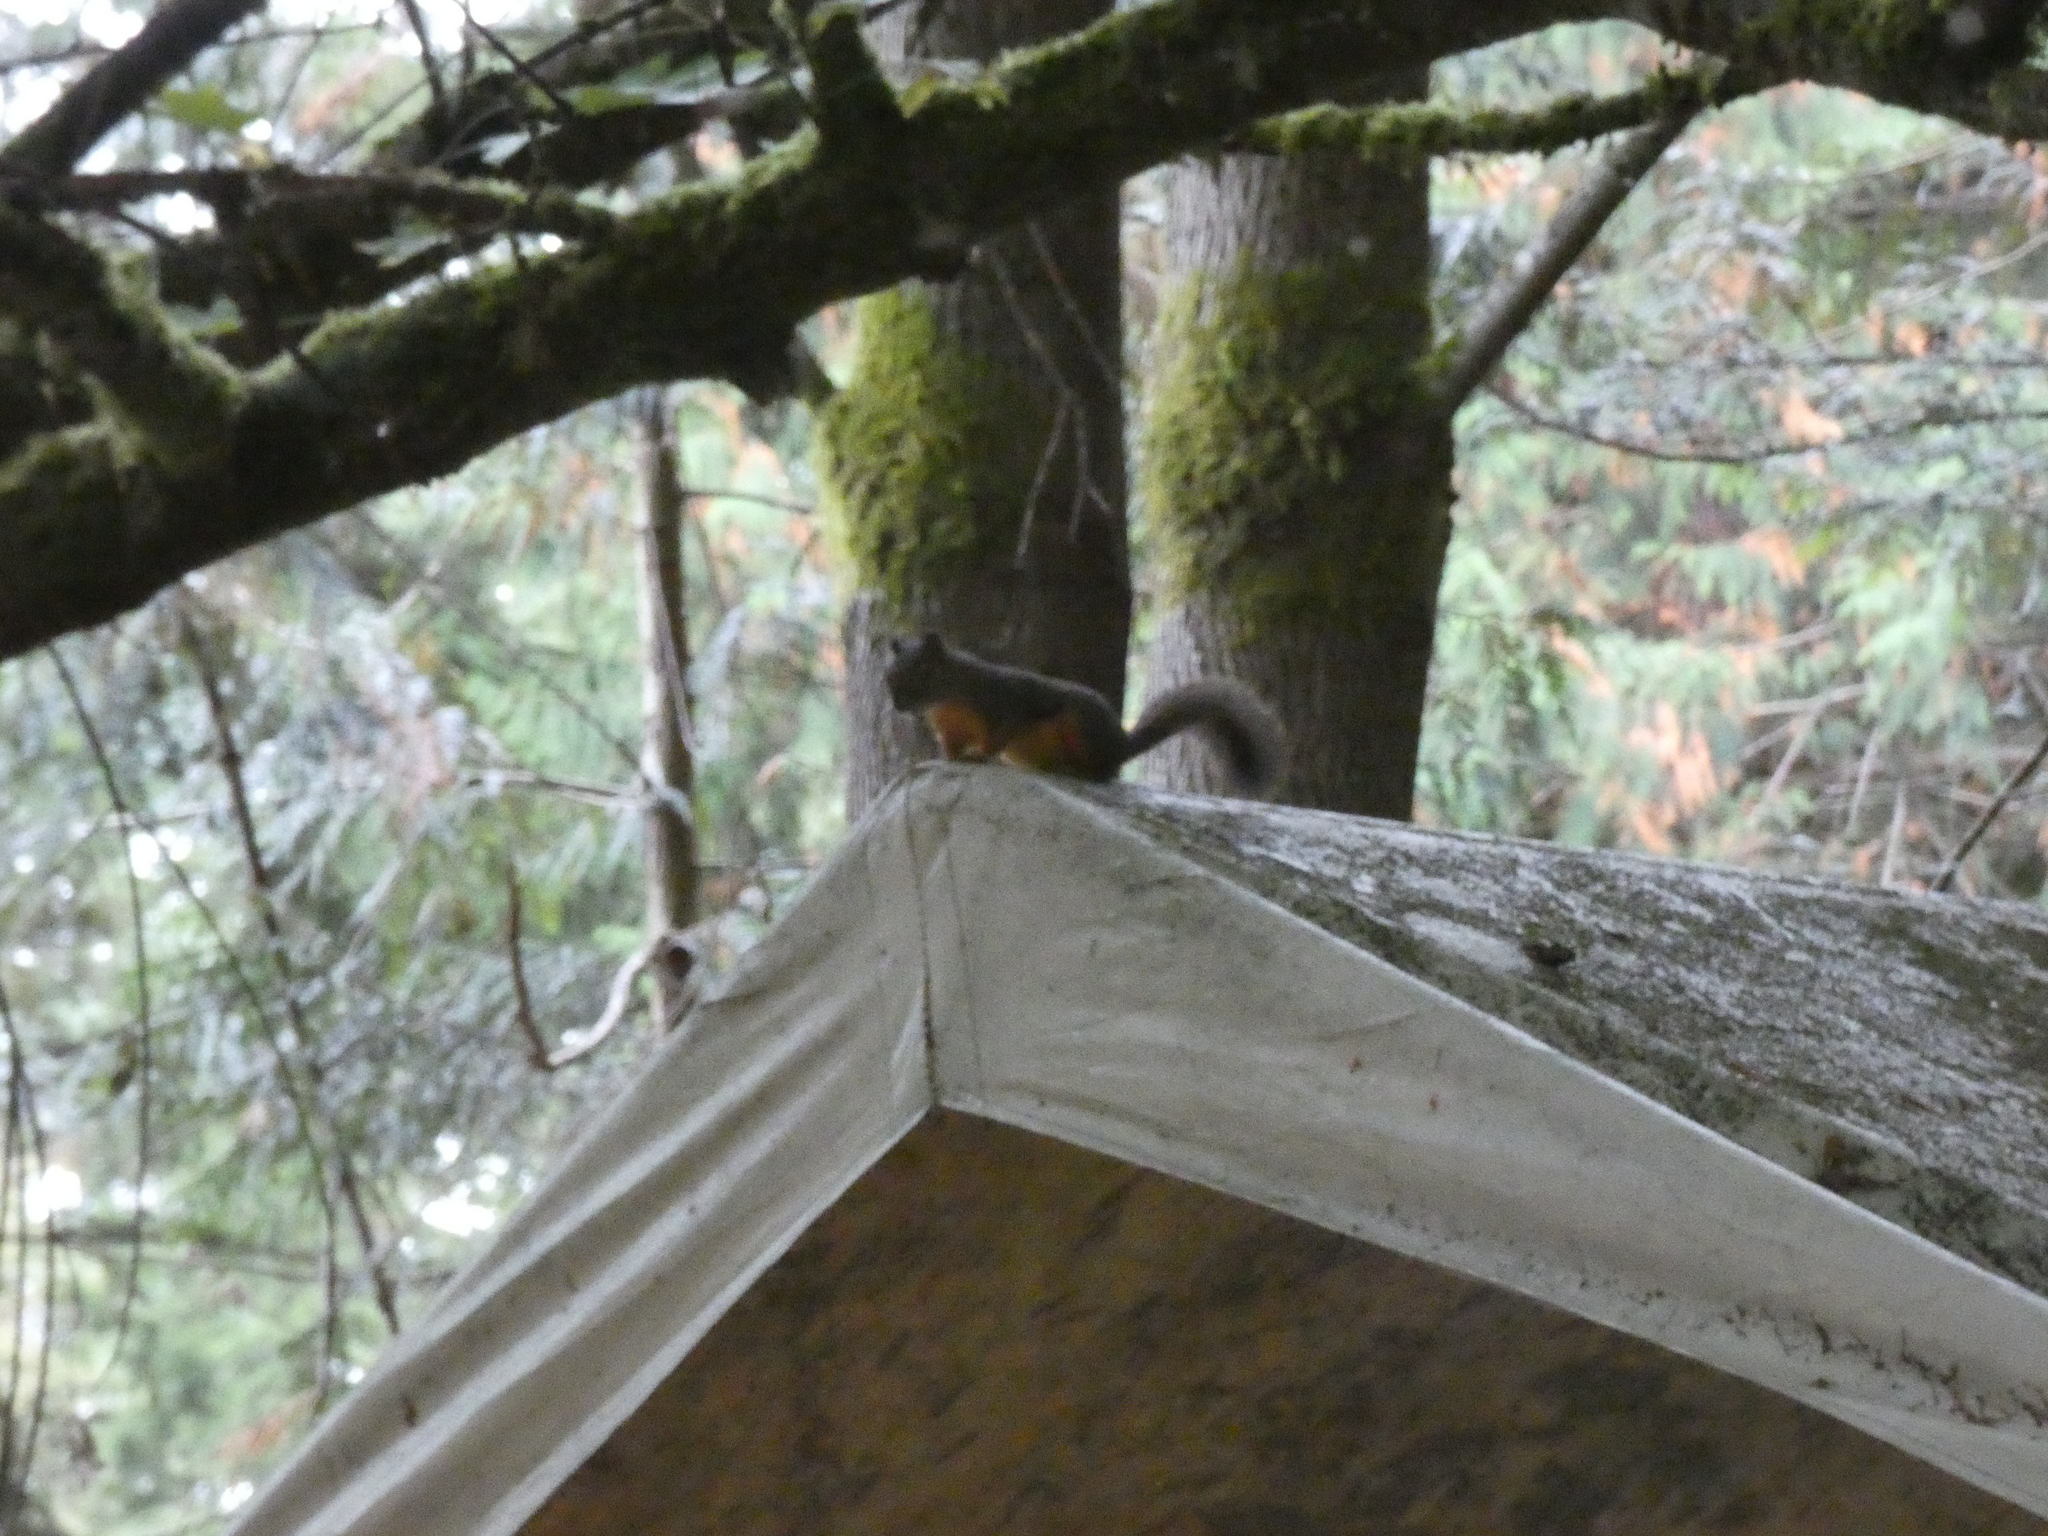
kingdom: Animalia
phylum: Chordata
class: Mammalia
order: Rodentia
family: Sciuridae
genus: Tamiasciurus
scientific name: Tamiasciurus douglasii
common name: Douglas's squirrel
